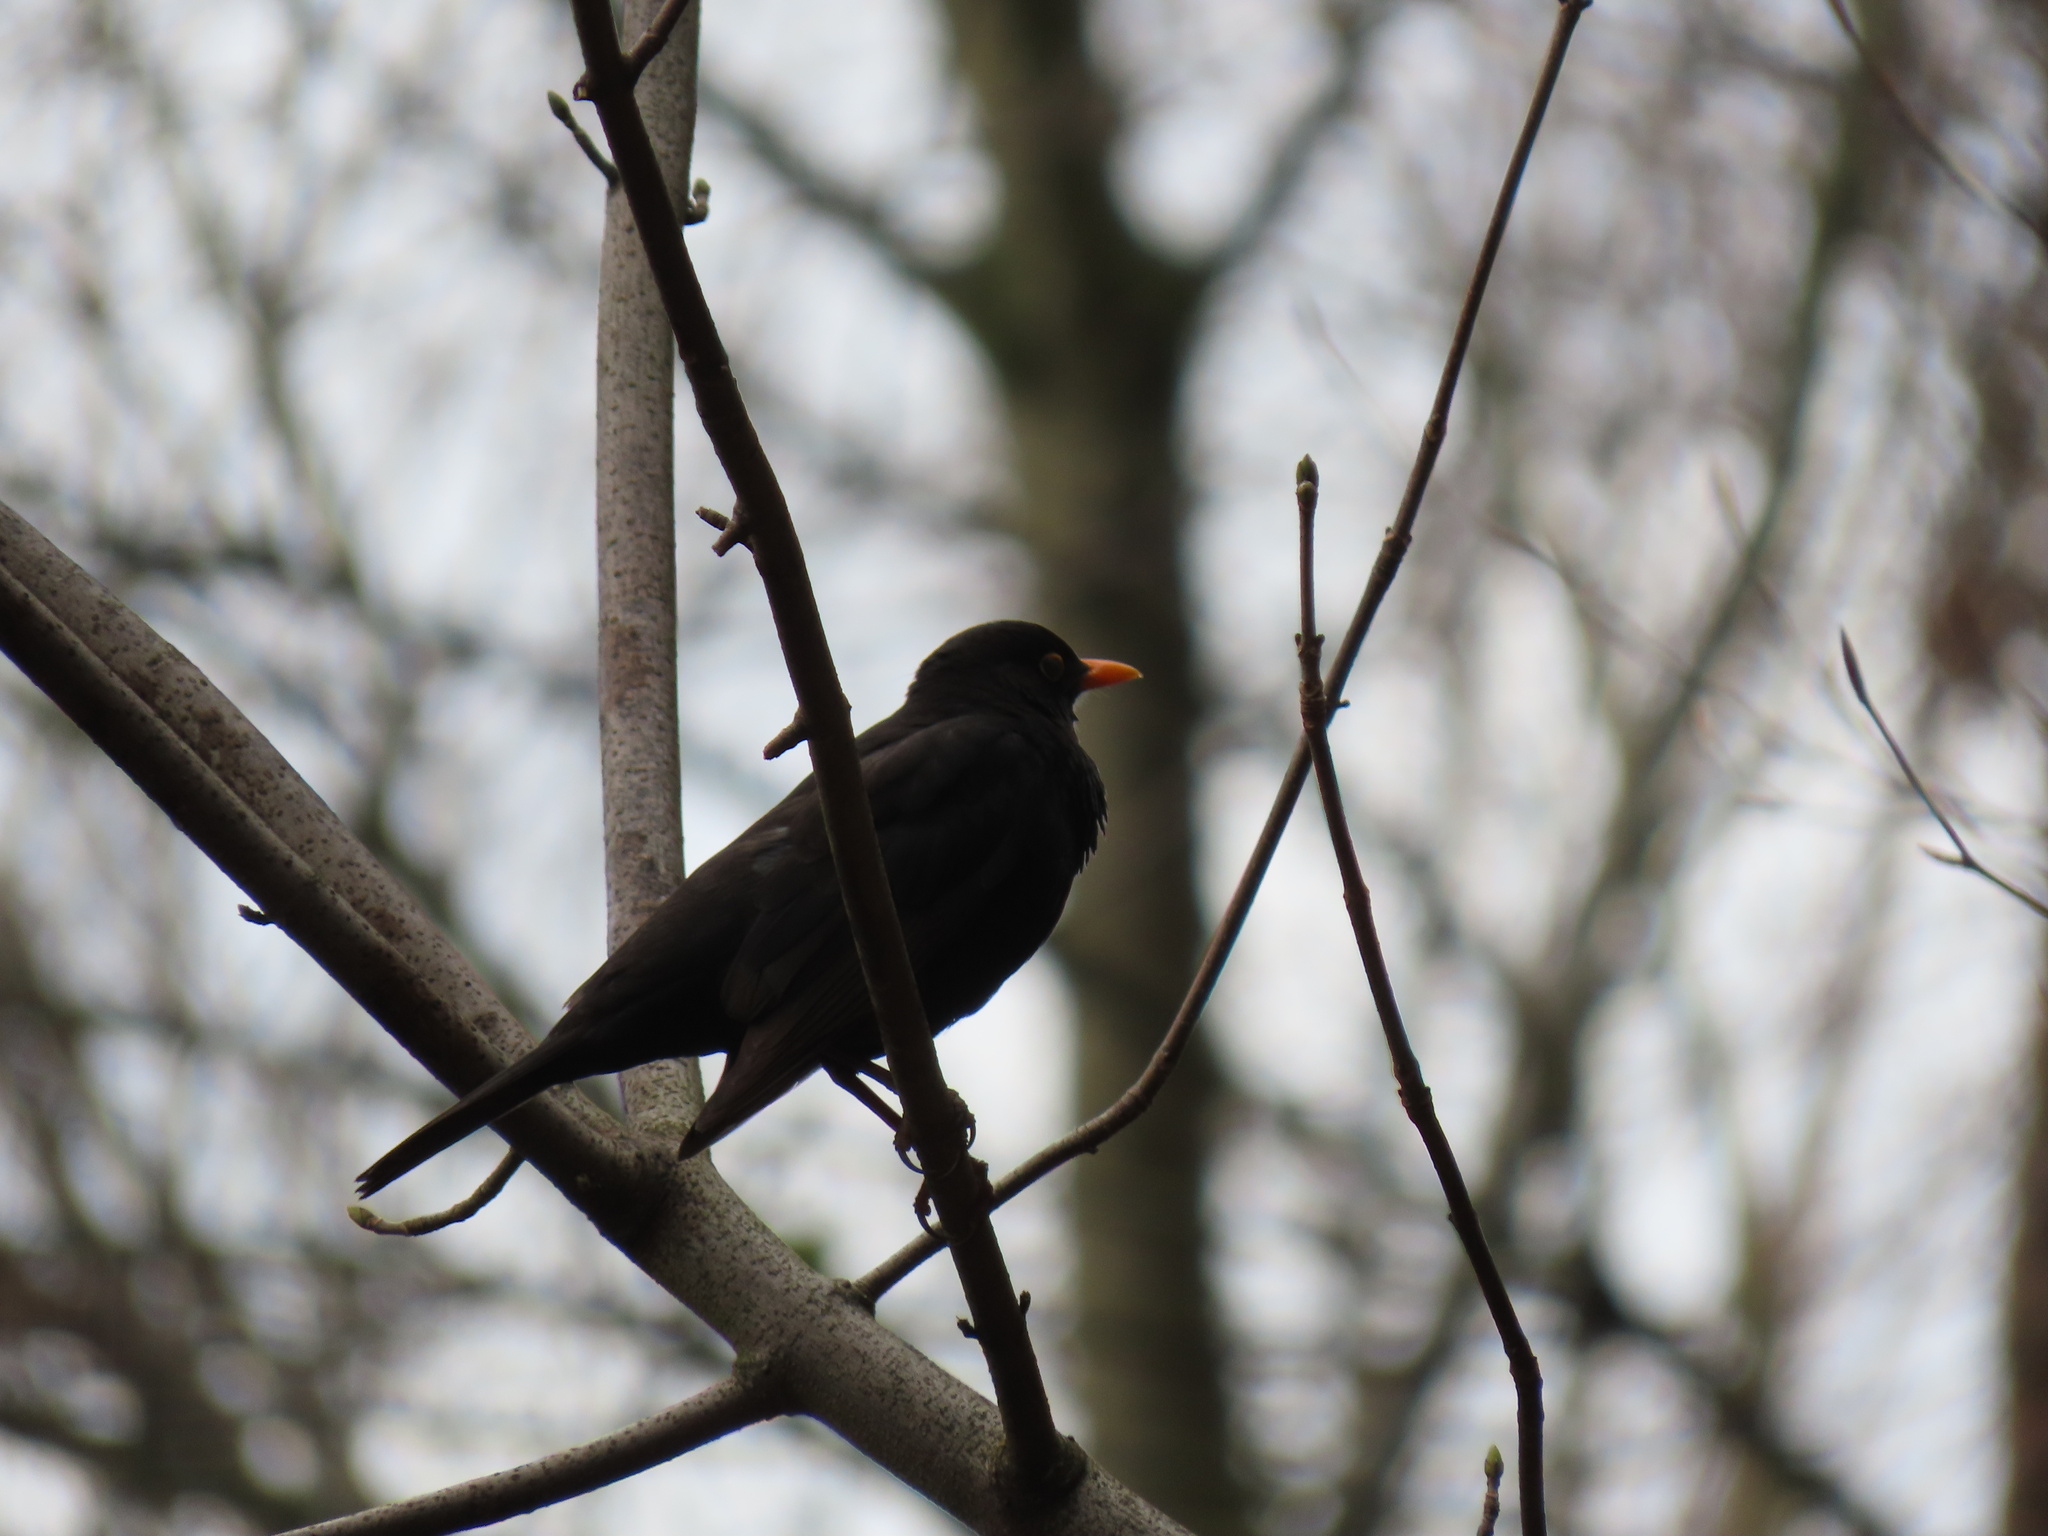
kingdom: Animalia
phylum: Chordata
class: Aves
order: Passeriformes
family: Turdidae
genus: Turdus
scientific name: Turdus merula
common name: Common blackbird
